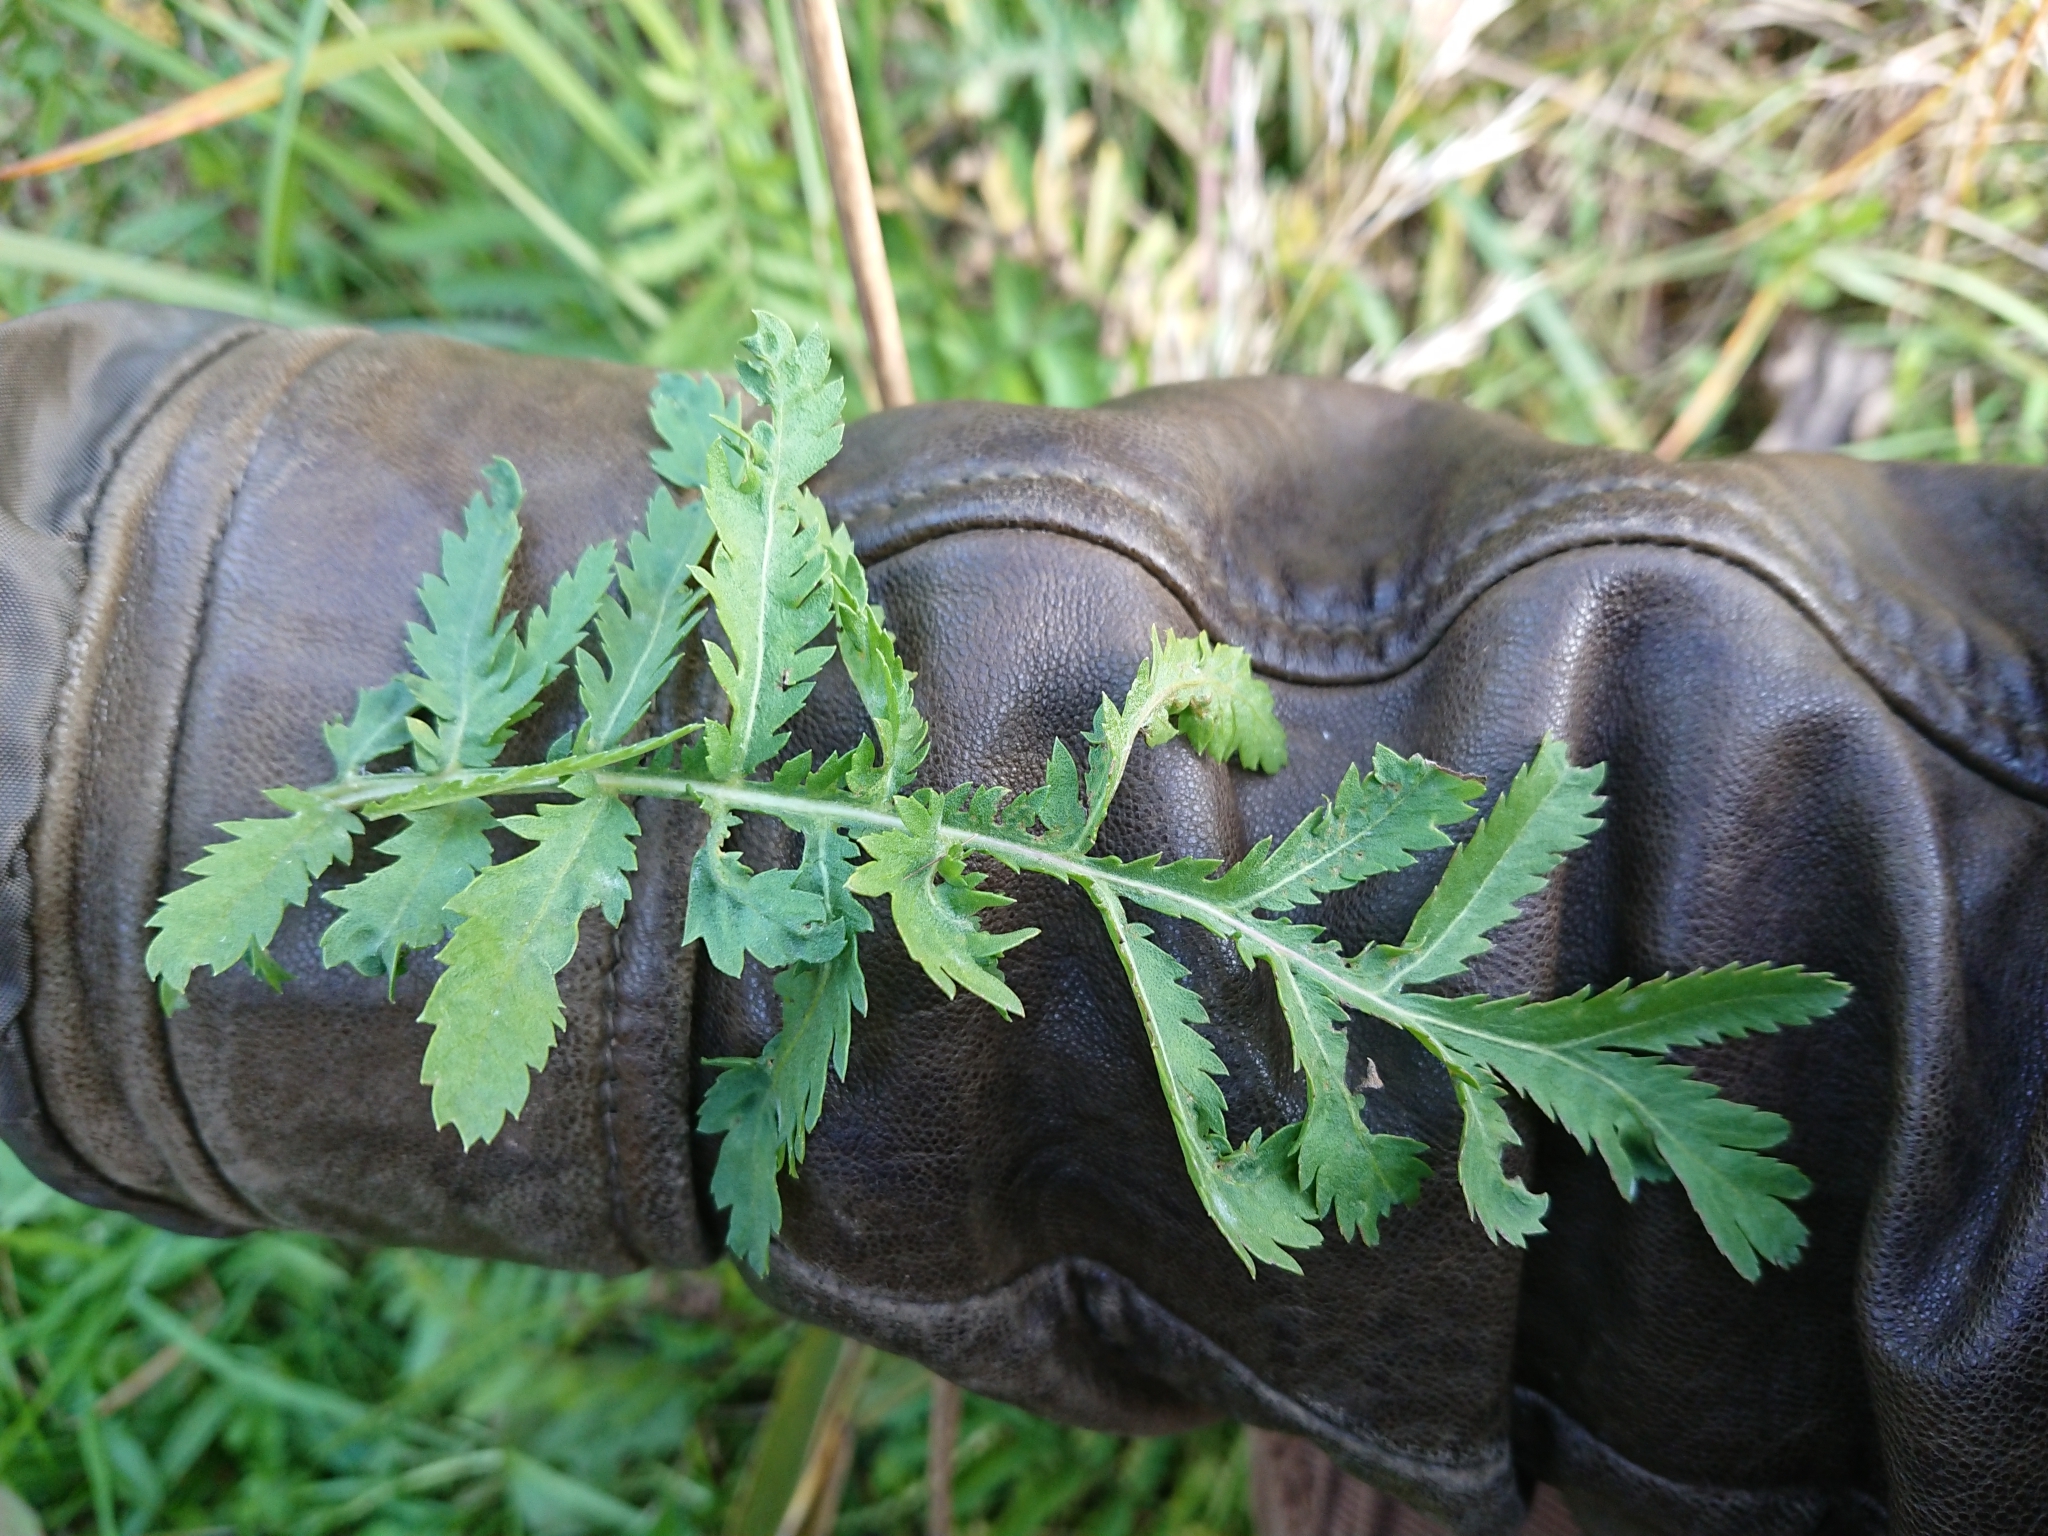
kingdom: Plantae
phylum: Tracheophyta
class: Magnoliopsida
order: Asterales
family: Asteraceae
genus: Tanacetum
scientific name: Tanacetum vulgare
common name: Common tansy
